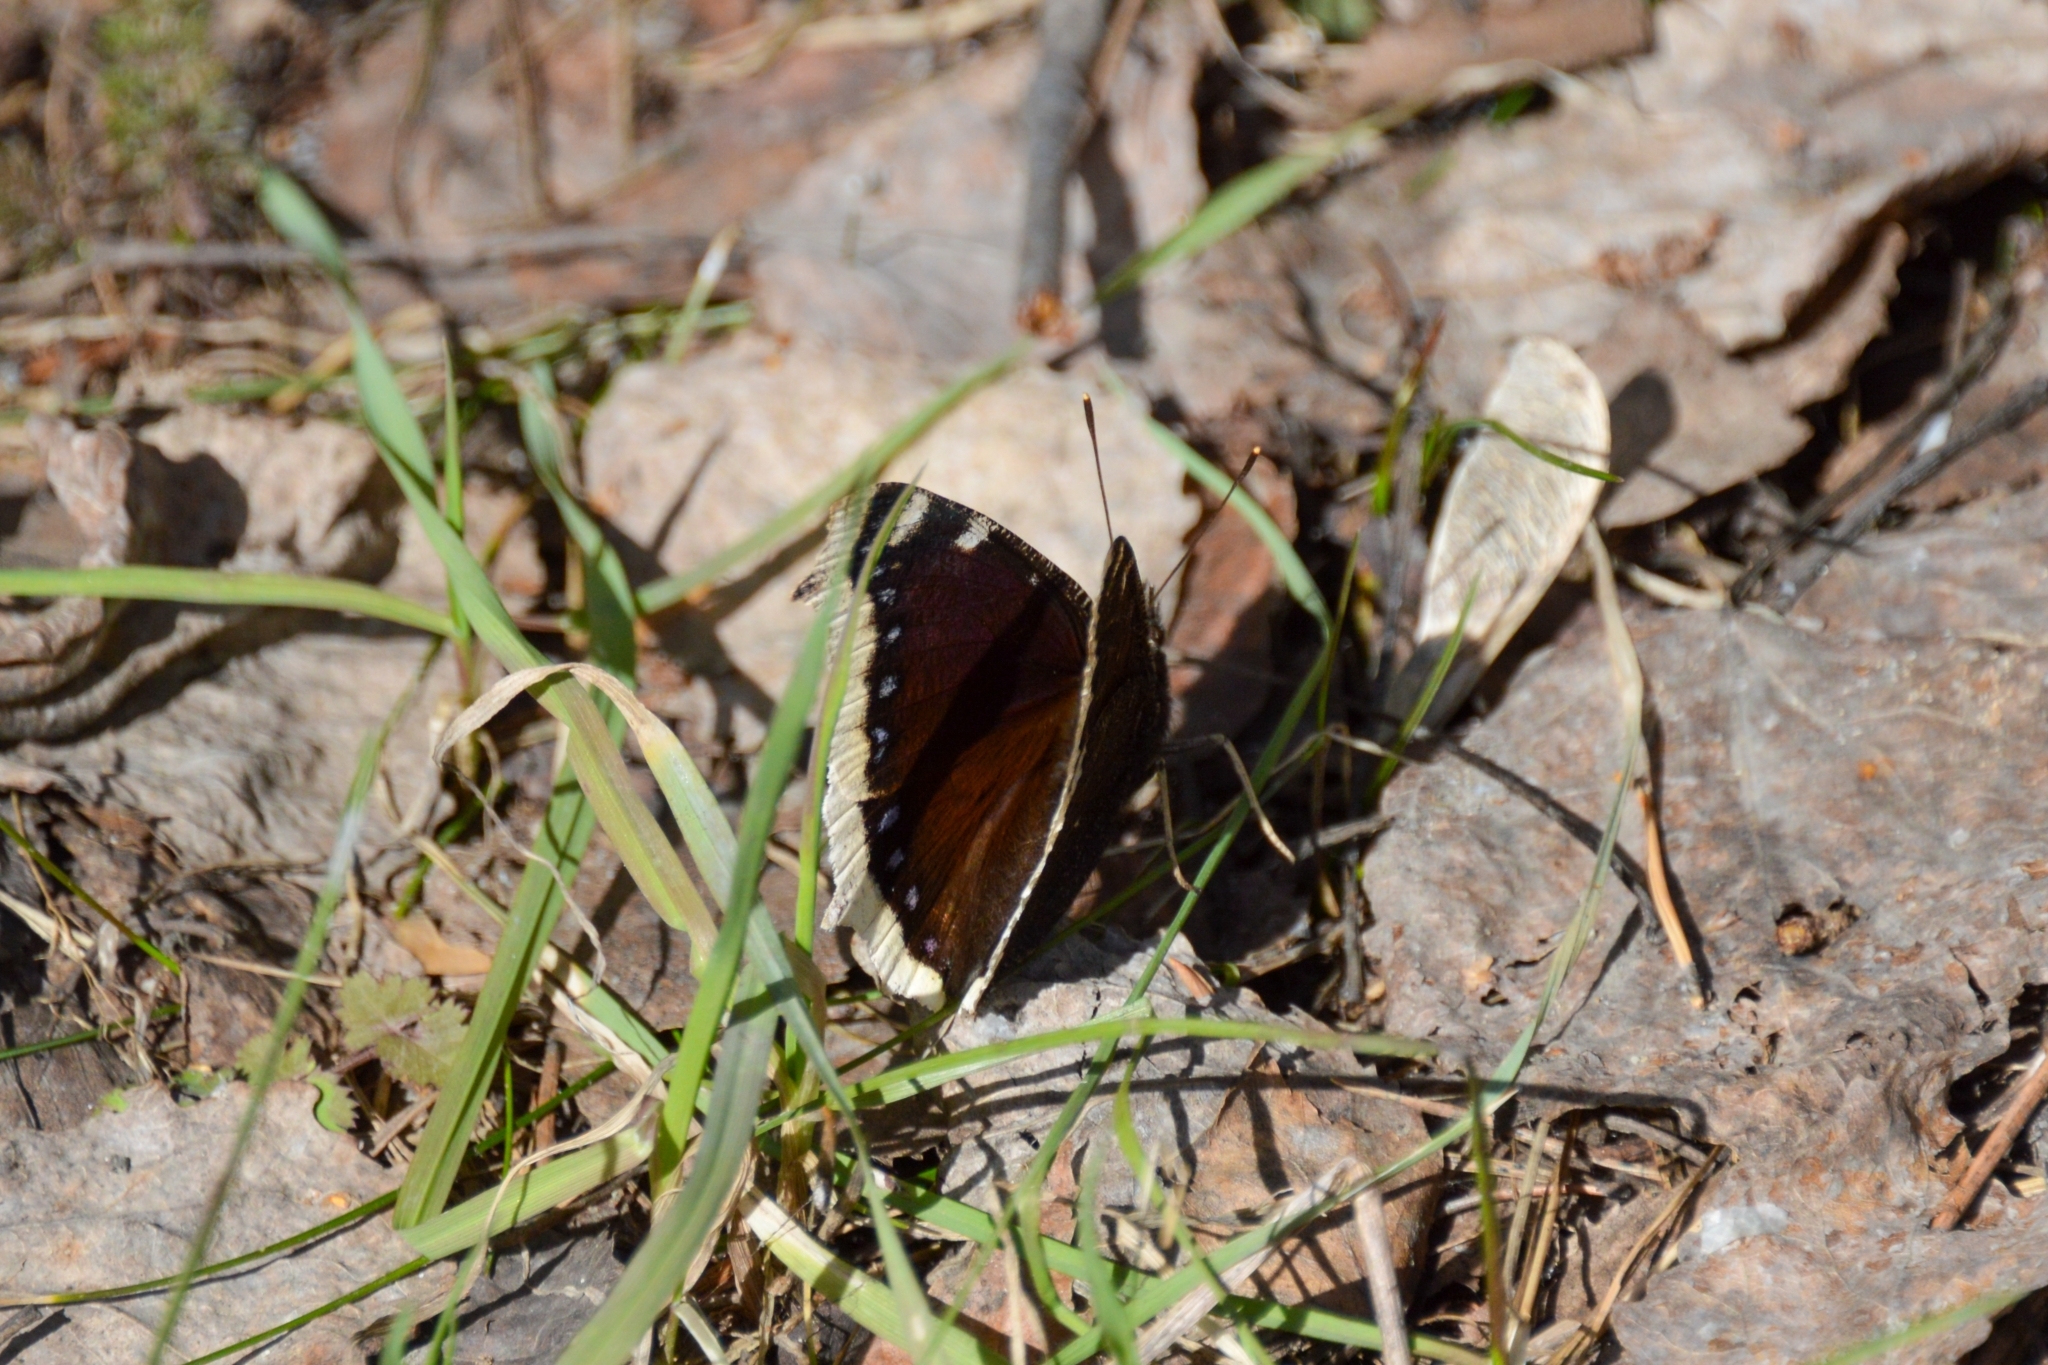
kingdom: Animalia
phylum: Arthropoda
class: Insecta
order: Lepidoptera
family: Nymphalidae
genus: Nymphalis
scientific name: Nymphalis antiopa
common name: Camberwell beauty
